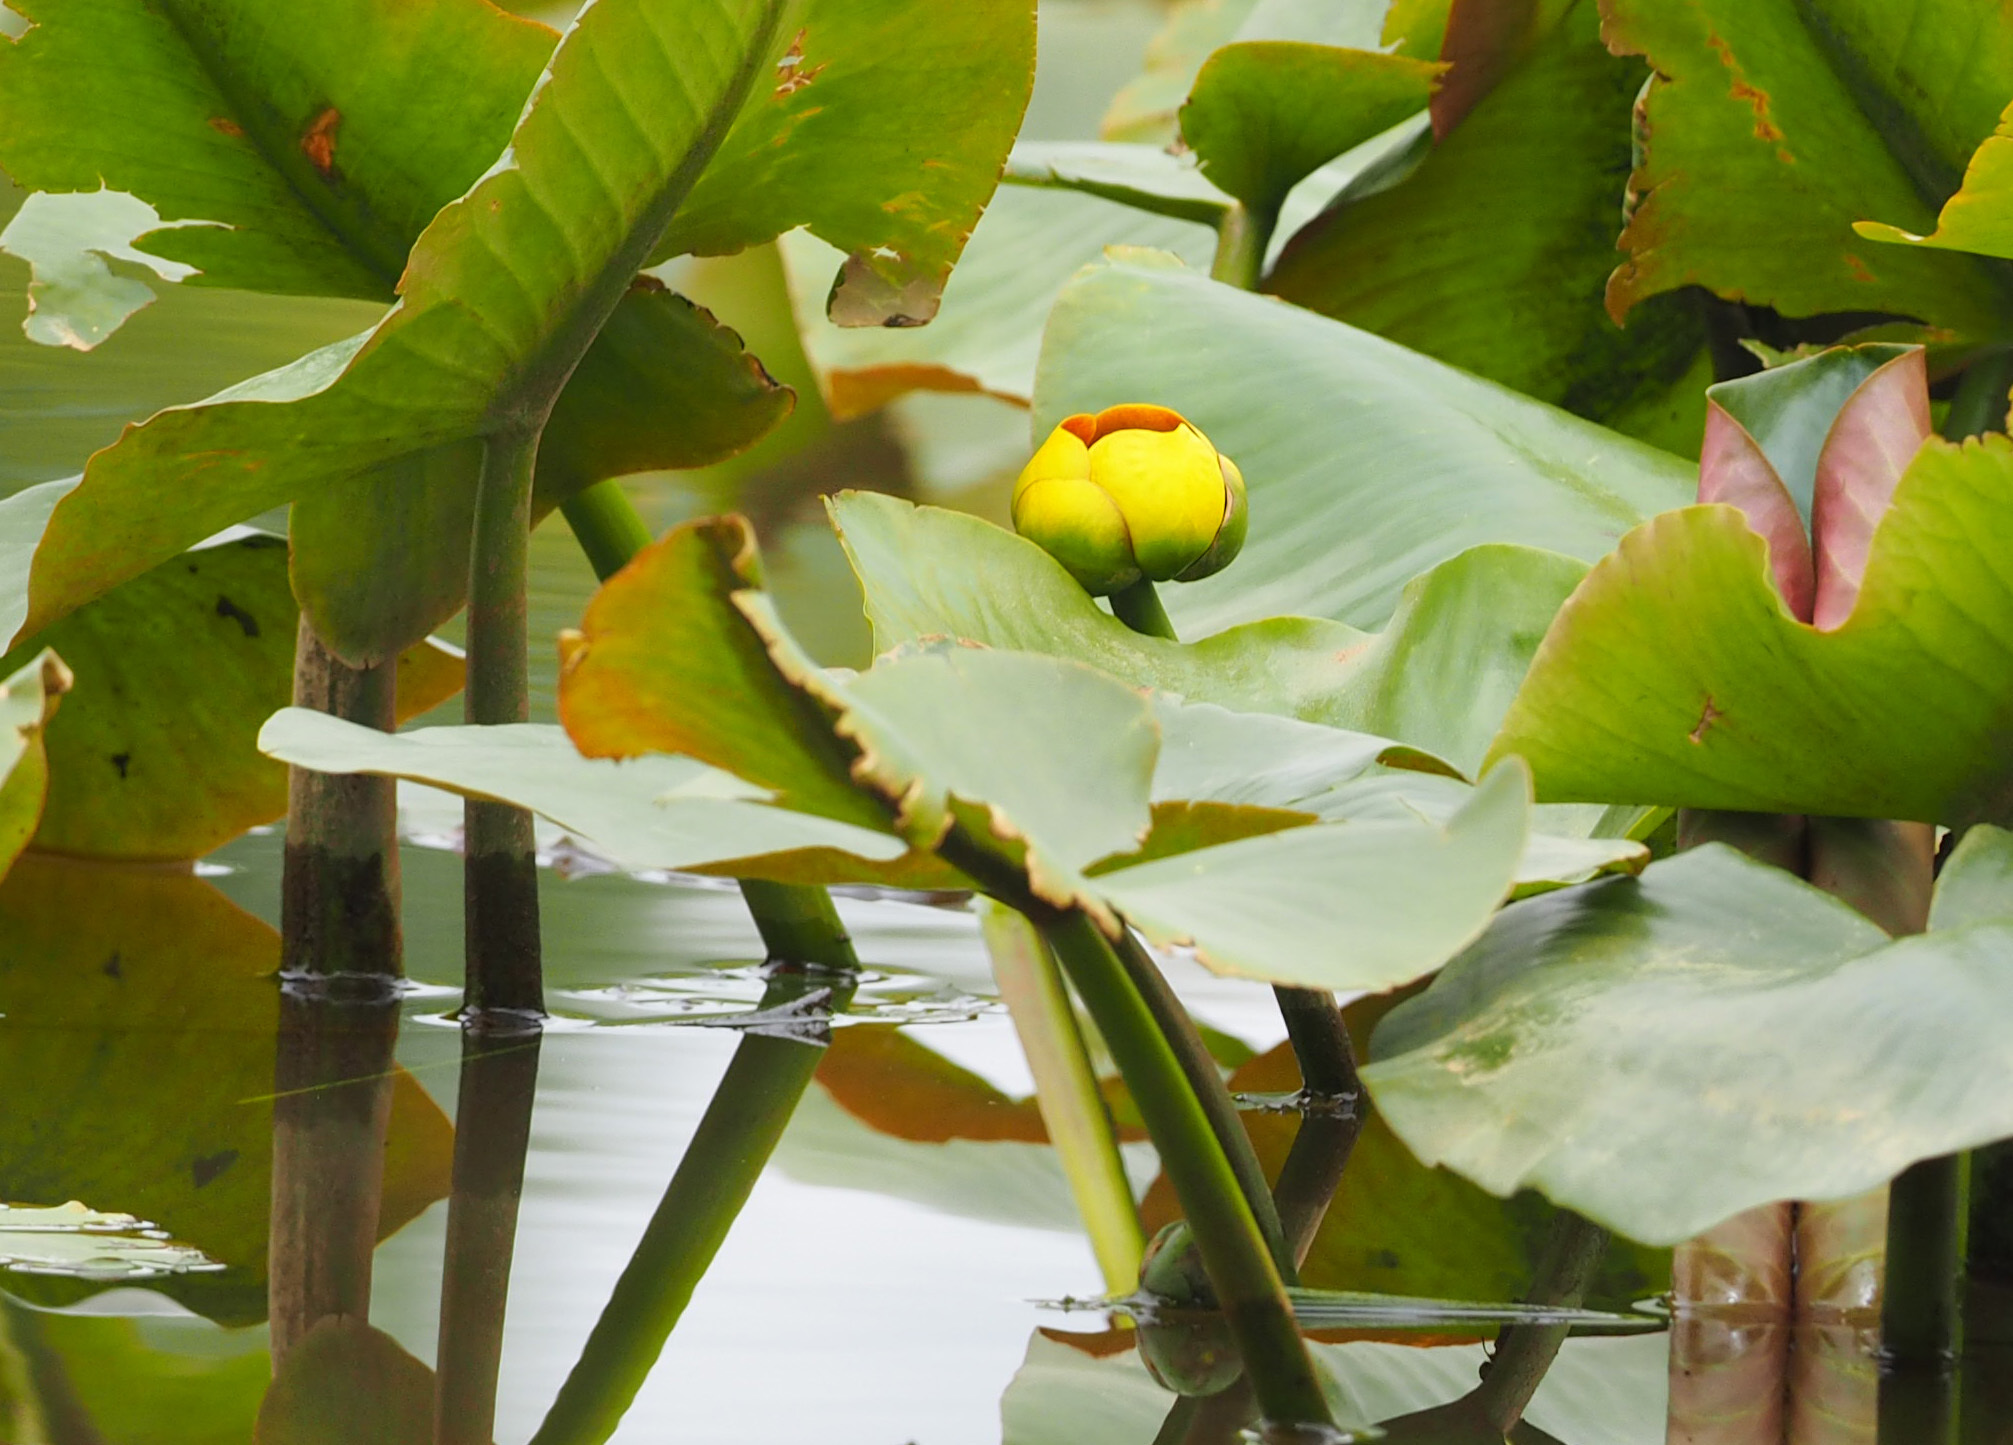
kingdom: Plantae
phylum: Tracheophyta
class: Magnoliopsida
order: Nymphaeales
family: Nymphaeaceae
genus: Nuphar
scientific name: Nuphar advena
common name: Spatter-dock
